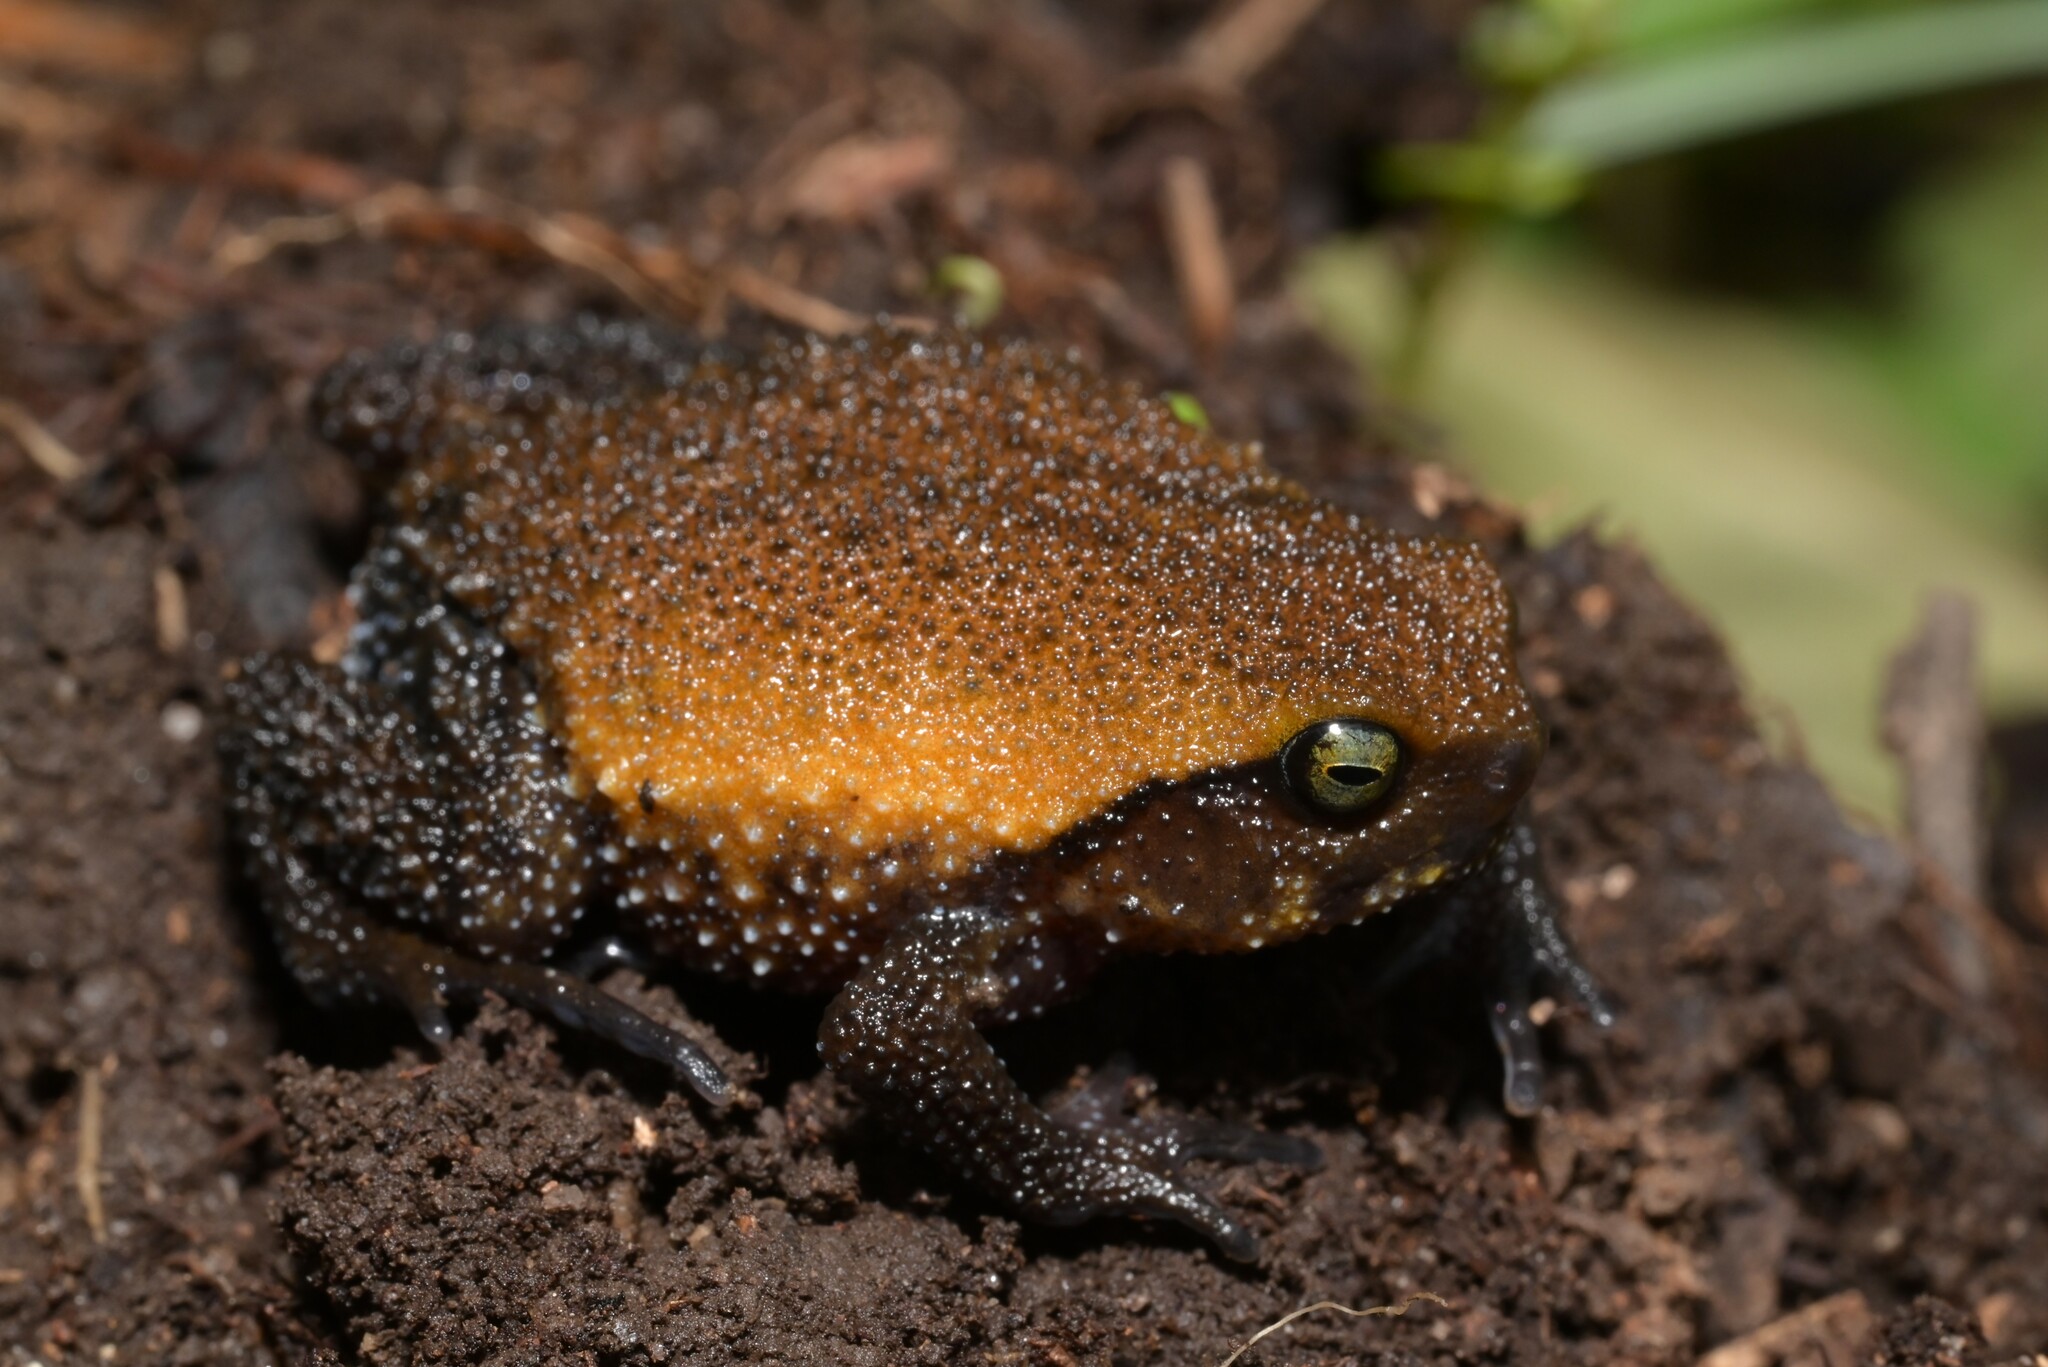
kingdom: Animalia
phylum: Chordata
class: Amphibia
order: Anura
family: Brevicipitidae
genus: Probreviceps
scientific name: Probreviceps rungwensis
